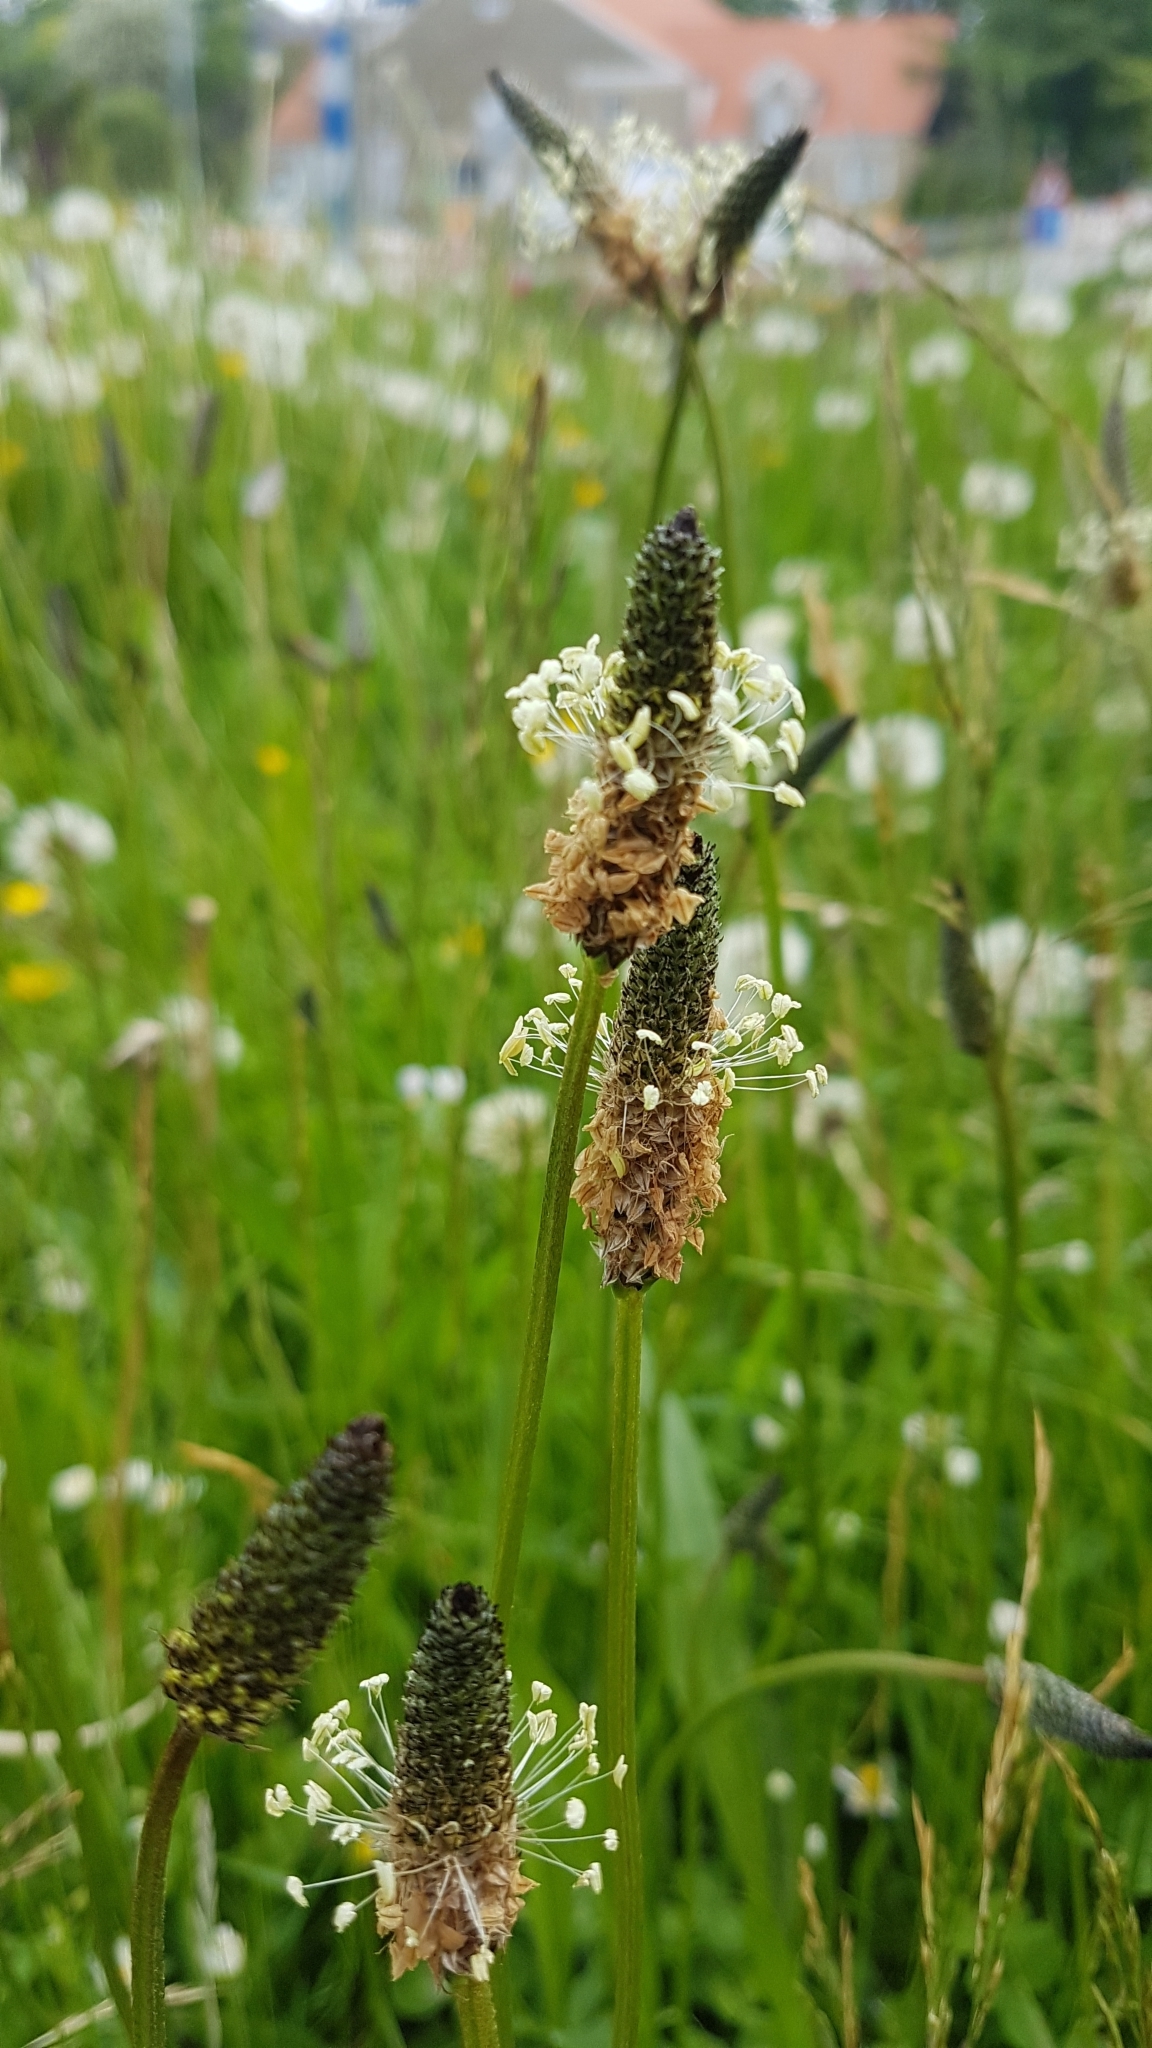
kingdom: Plantae
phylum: Tracheophyta
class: Magnoliopsida
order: Lamiales
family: Plantaginaceae
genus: Plantago
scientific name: Plantago lanceolata
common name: Ribwort plantain
